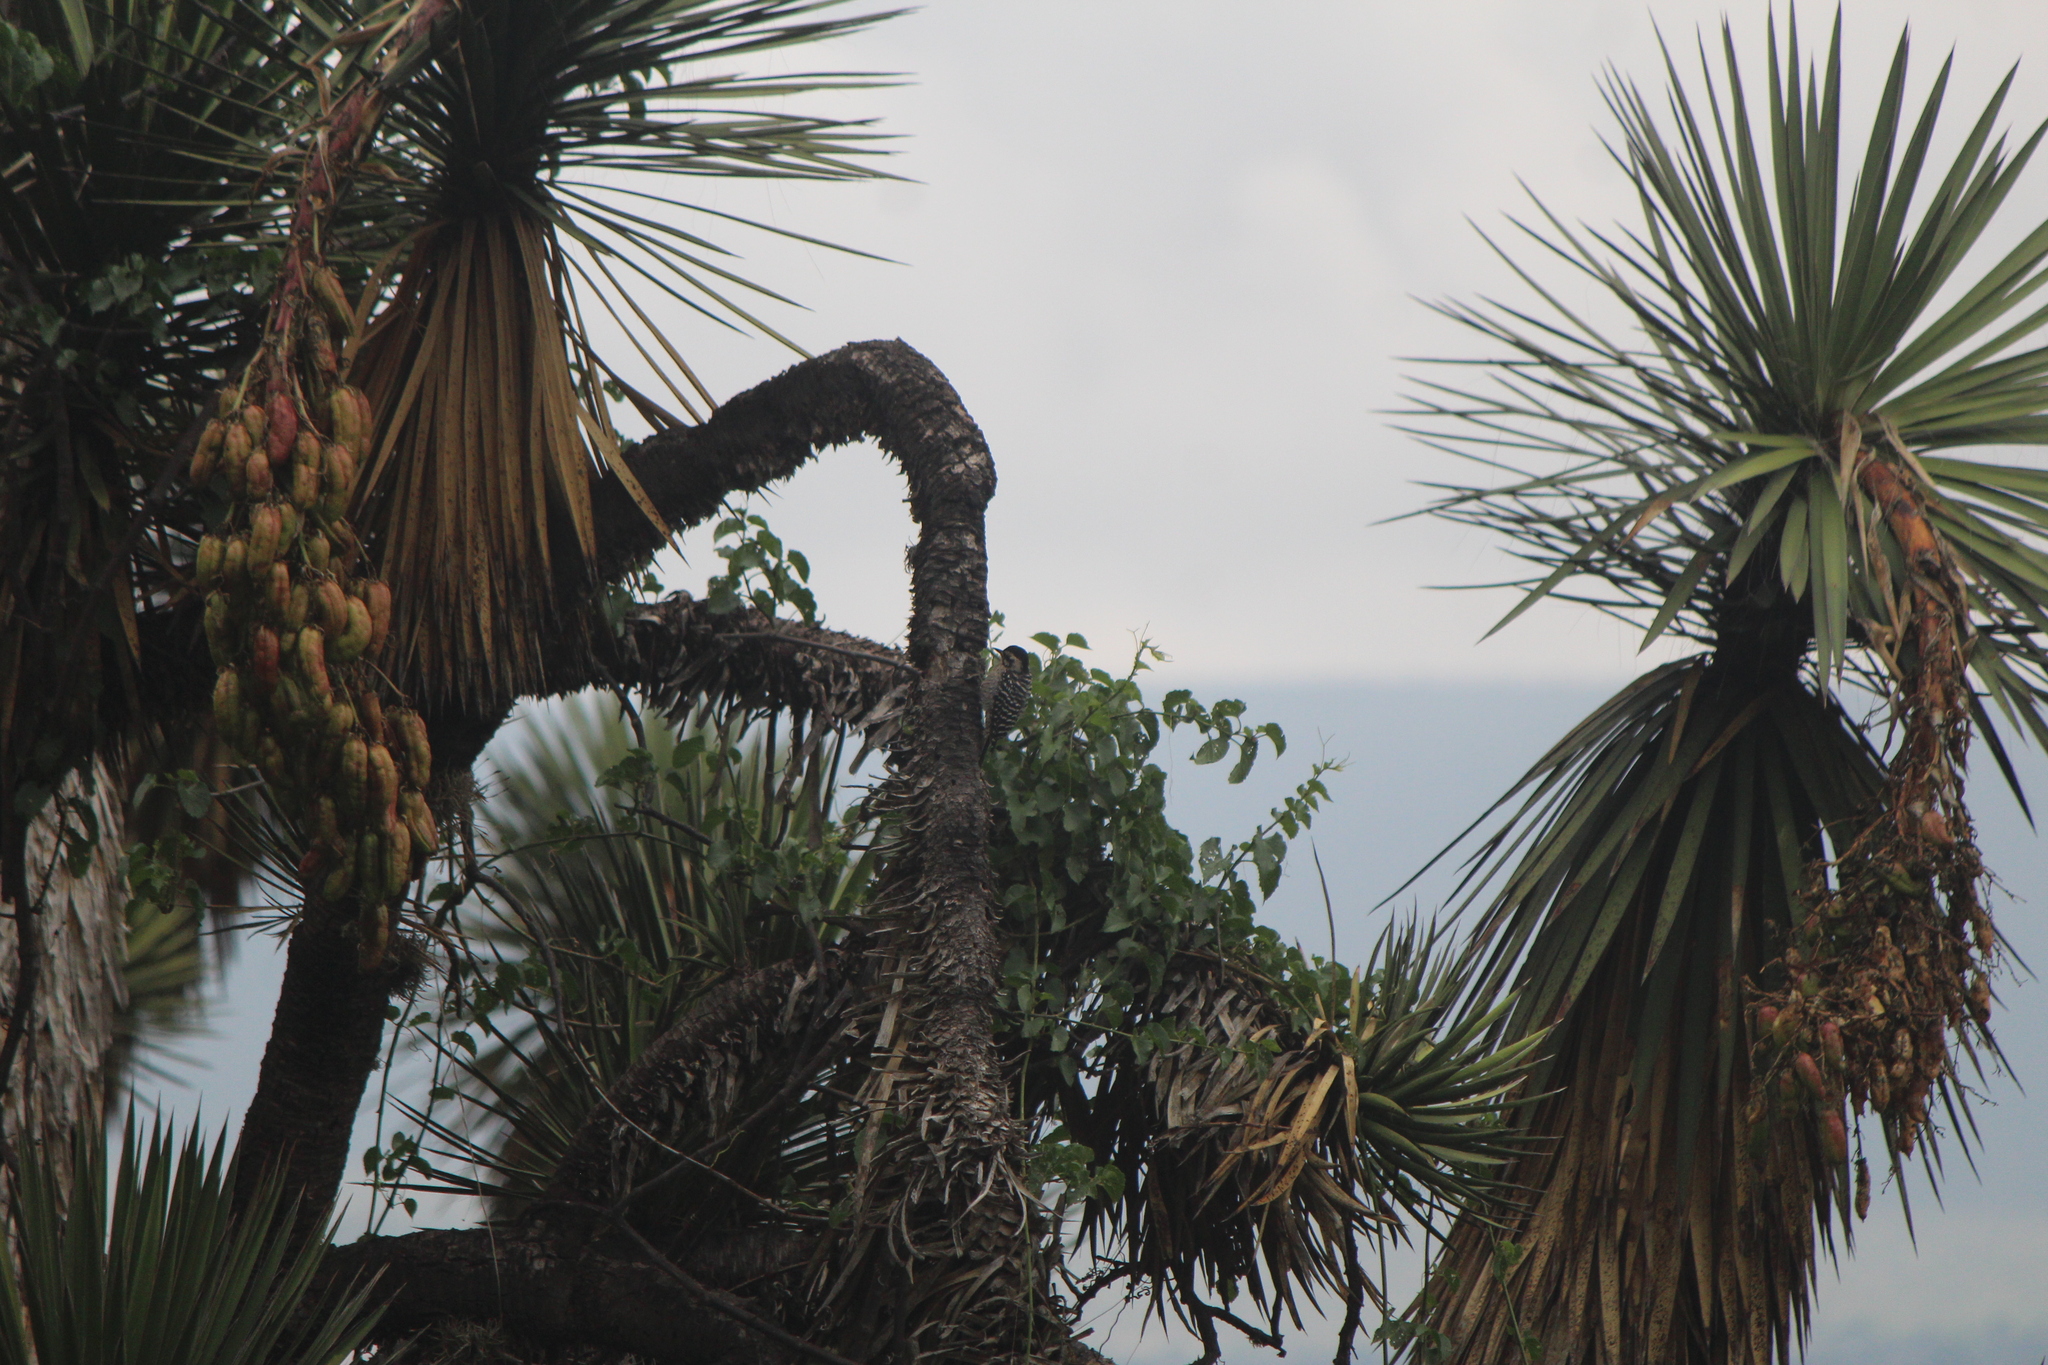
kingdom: Animalia
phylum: Chordata
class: Aves
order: Piciformes
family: Picidae
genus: Dryobates
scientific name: Dryobates scalaris
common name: Ladder-backed woodpecker
